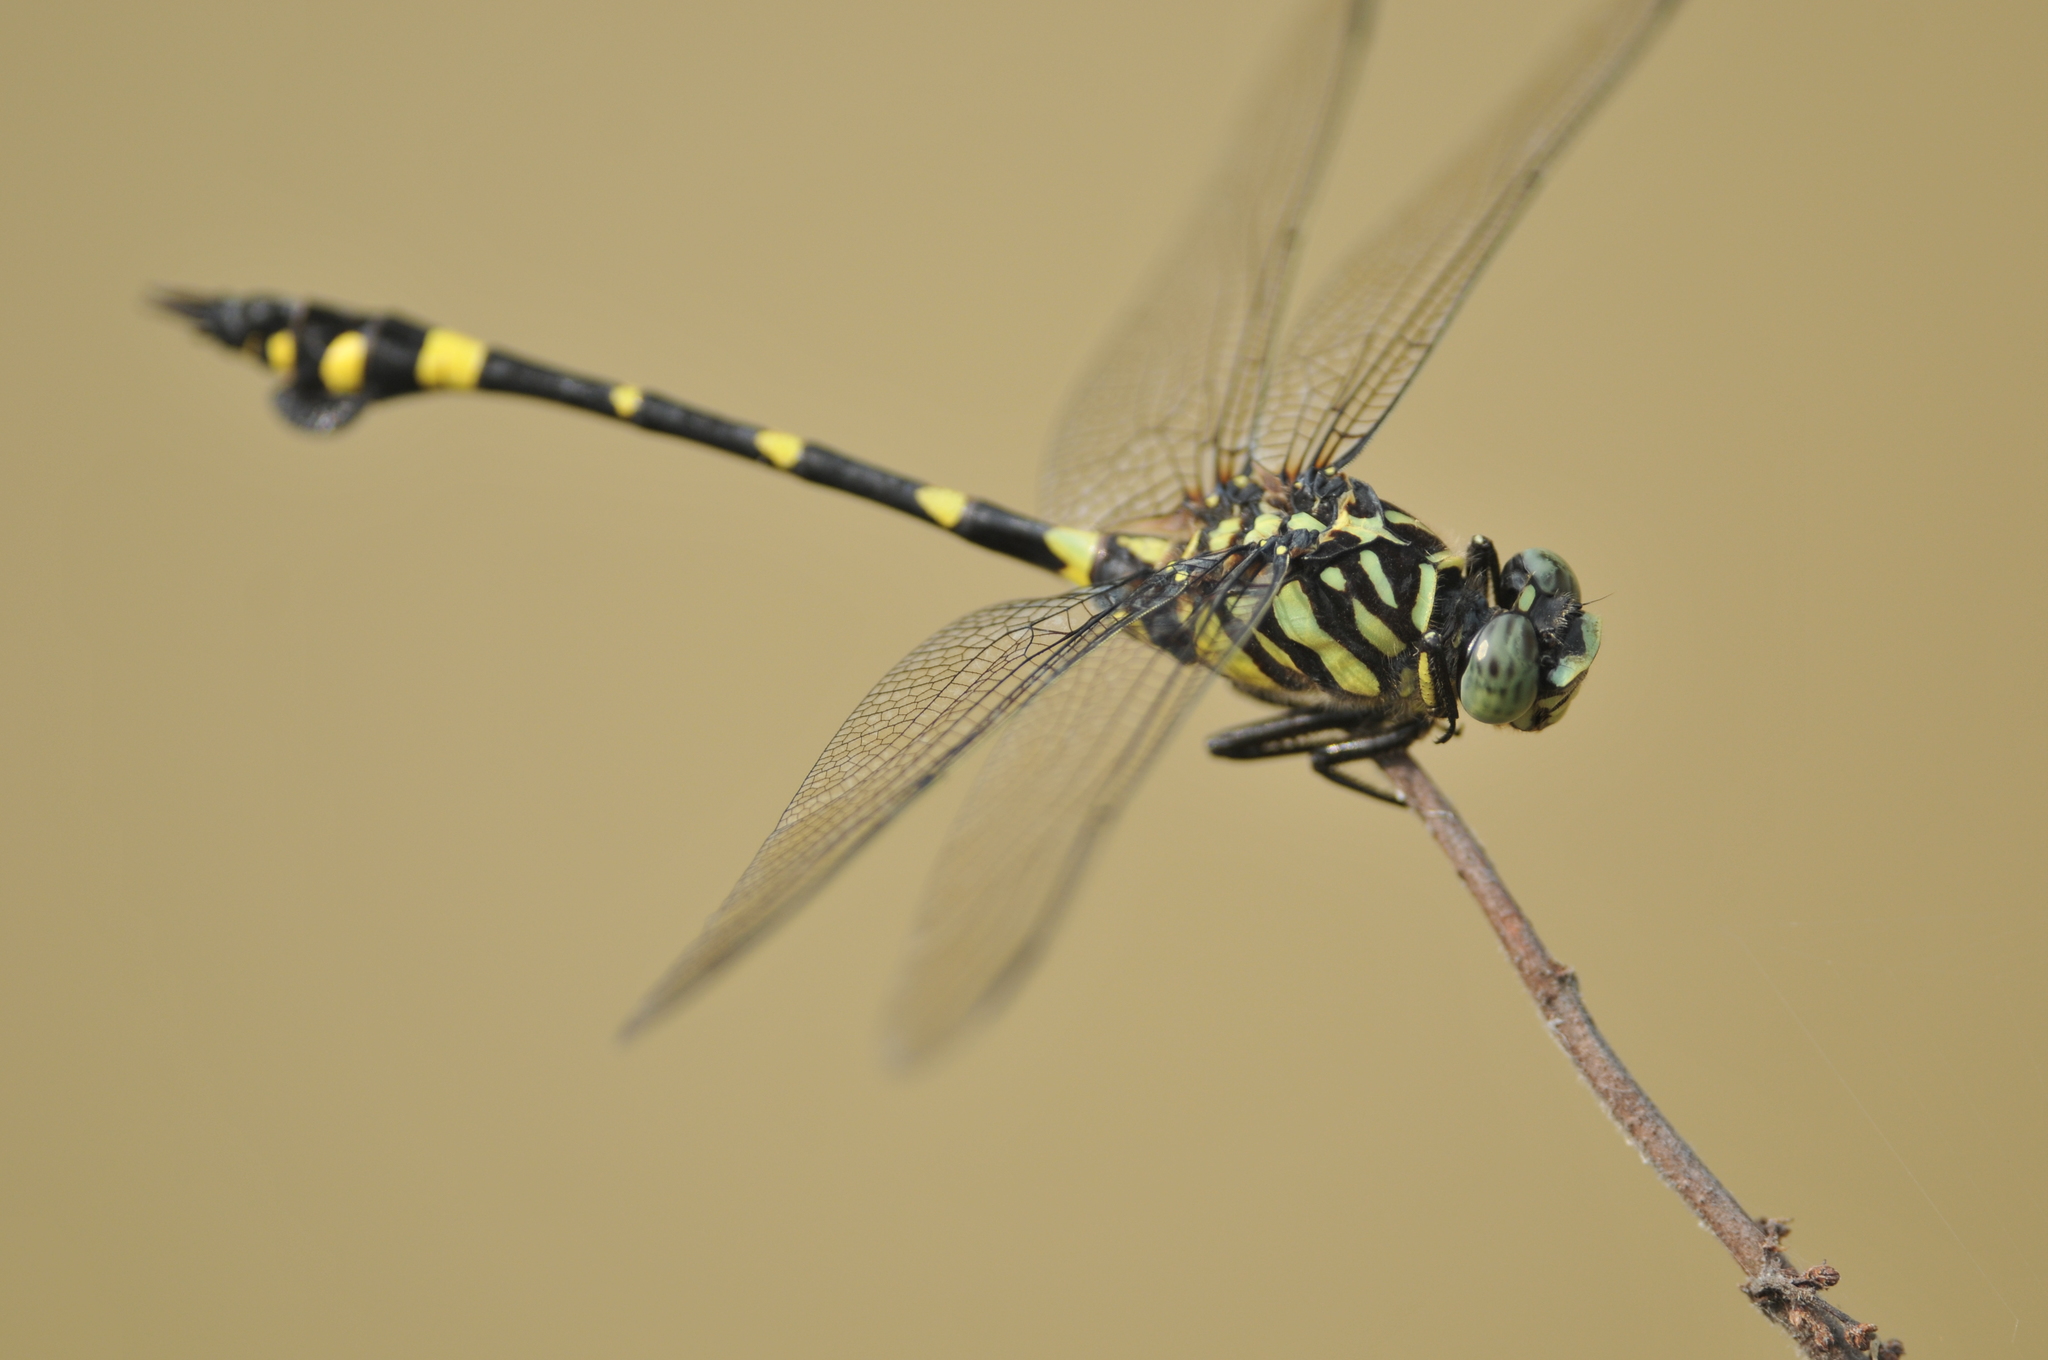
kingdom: Animalia
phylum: Arthropoda
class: Insecta
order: Odonata
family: Gomphidae
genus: Ictinogomphus
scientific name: Ictinogomphus rapax
